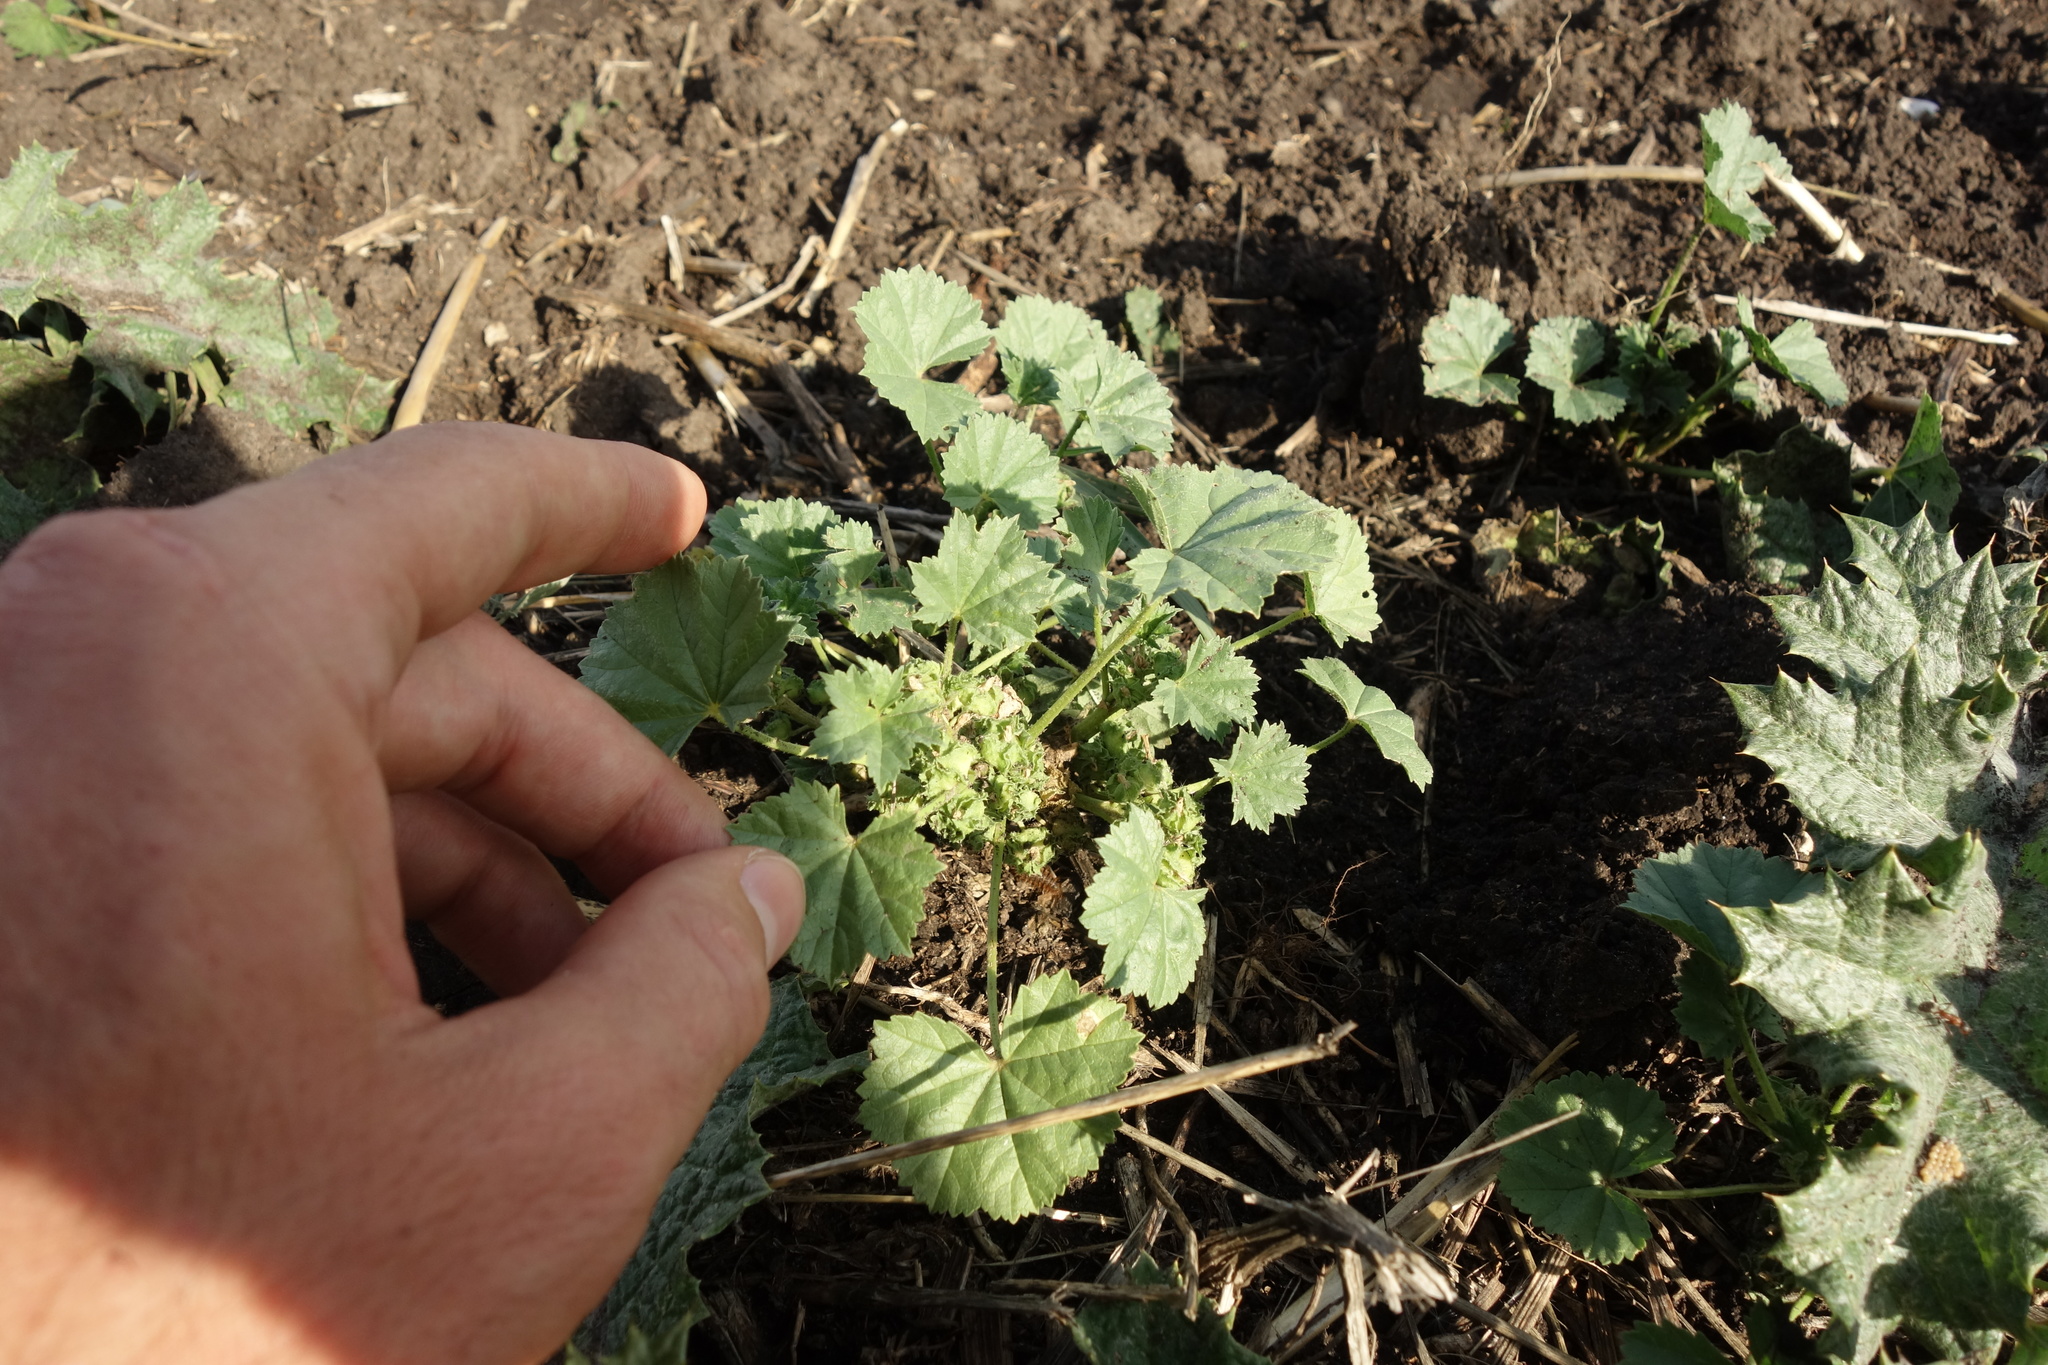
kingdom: Plantae
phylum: Tracheophyta
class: Magnoliopsida
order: Malvales
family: Malvaceae
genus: Malva
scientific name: Malva pusilla
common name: Small mallow
